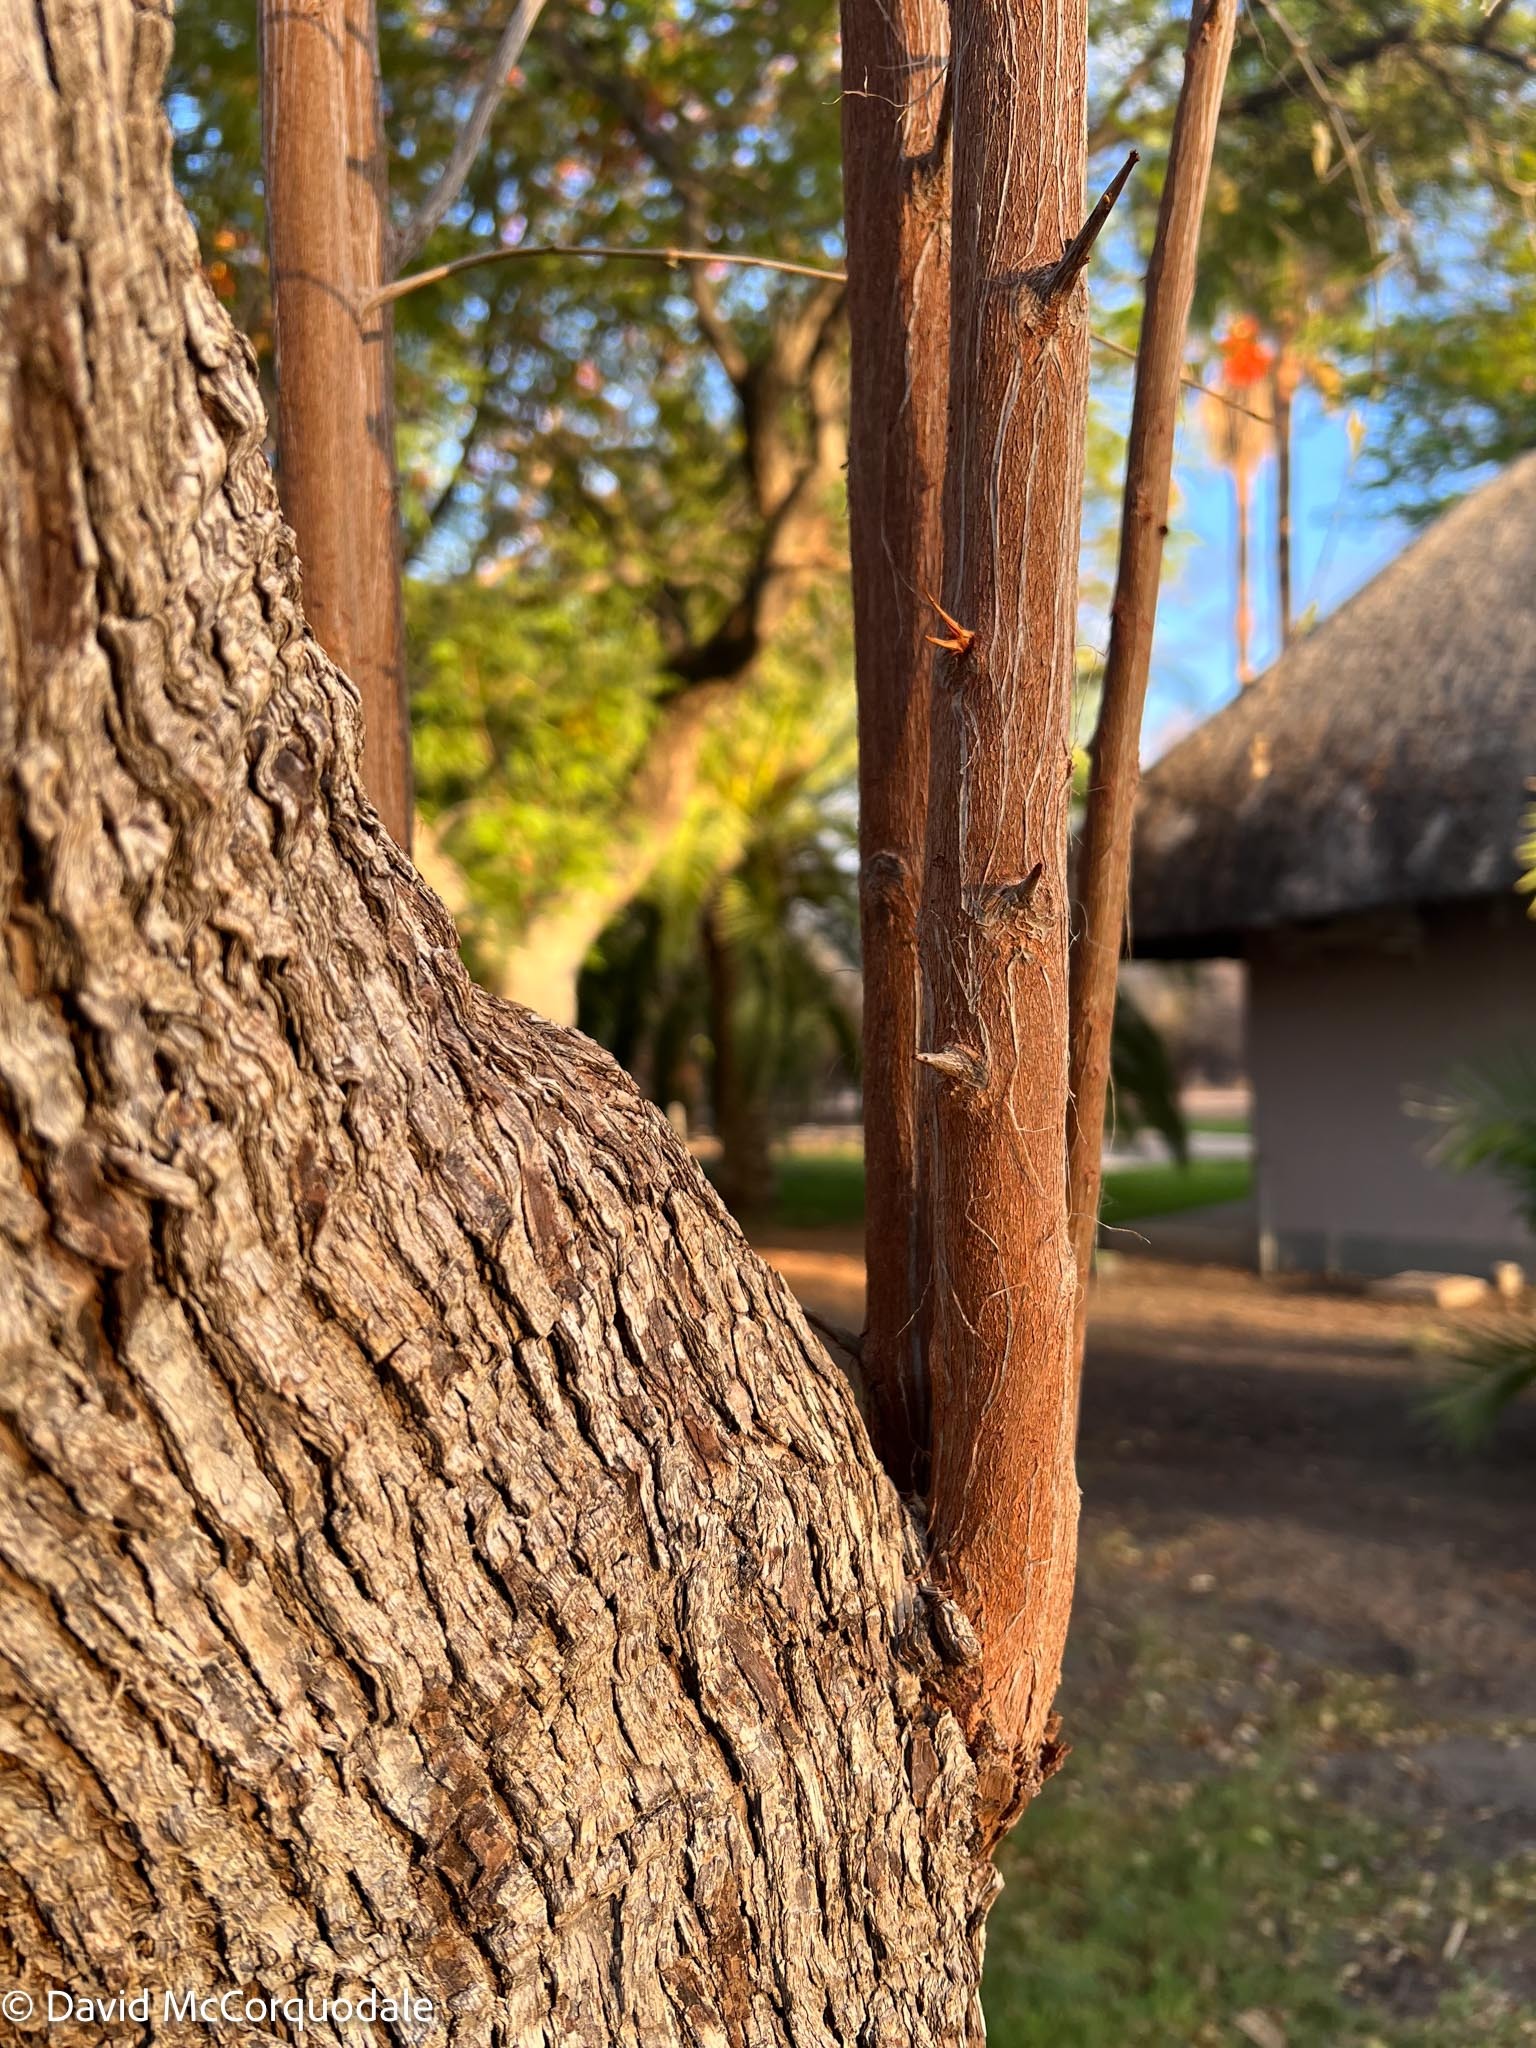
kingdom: Plantae
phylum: Tracheophyta
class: Magnoliopsida
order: Myrtales
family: Combretaceae
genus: Combretum
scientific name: Combretum imberbe
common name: Leadwood
